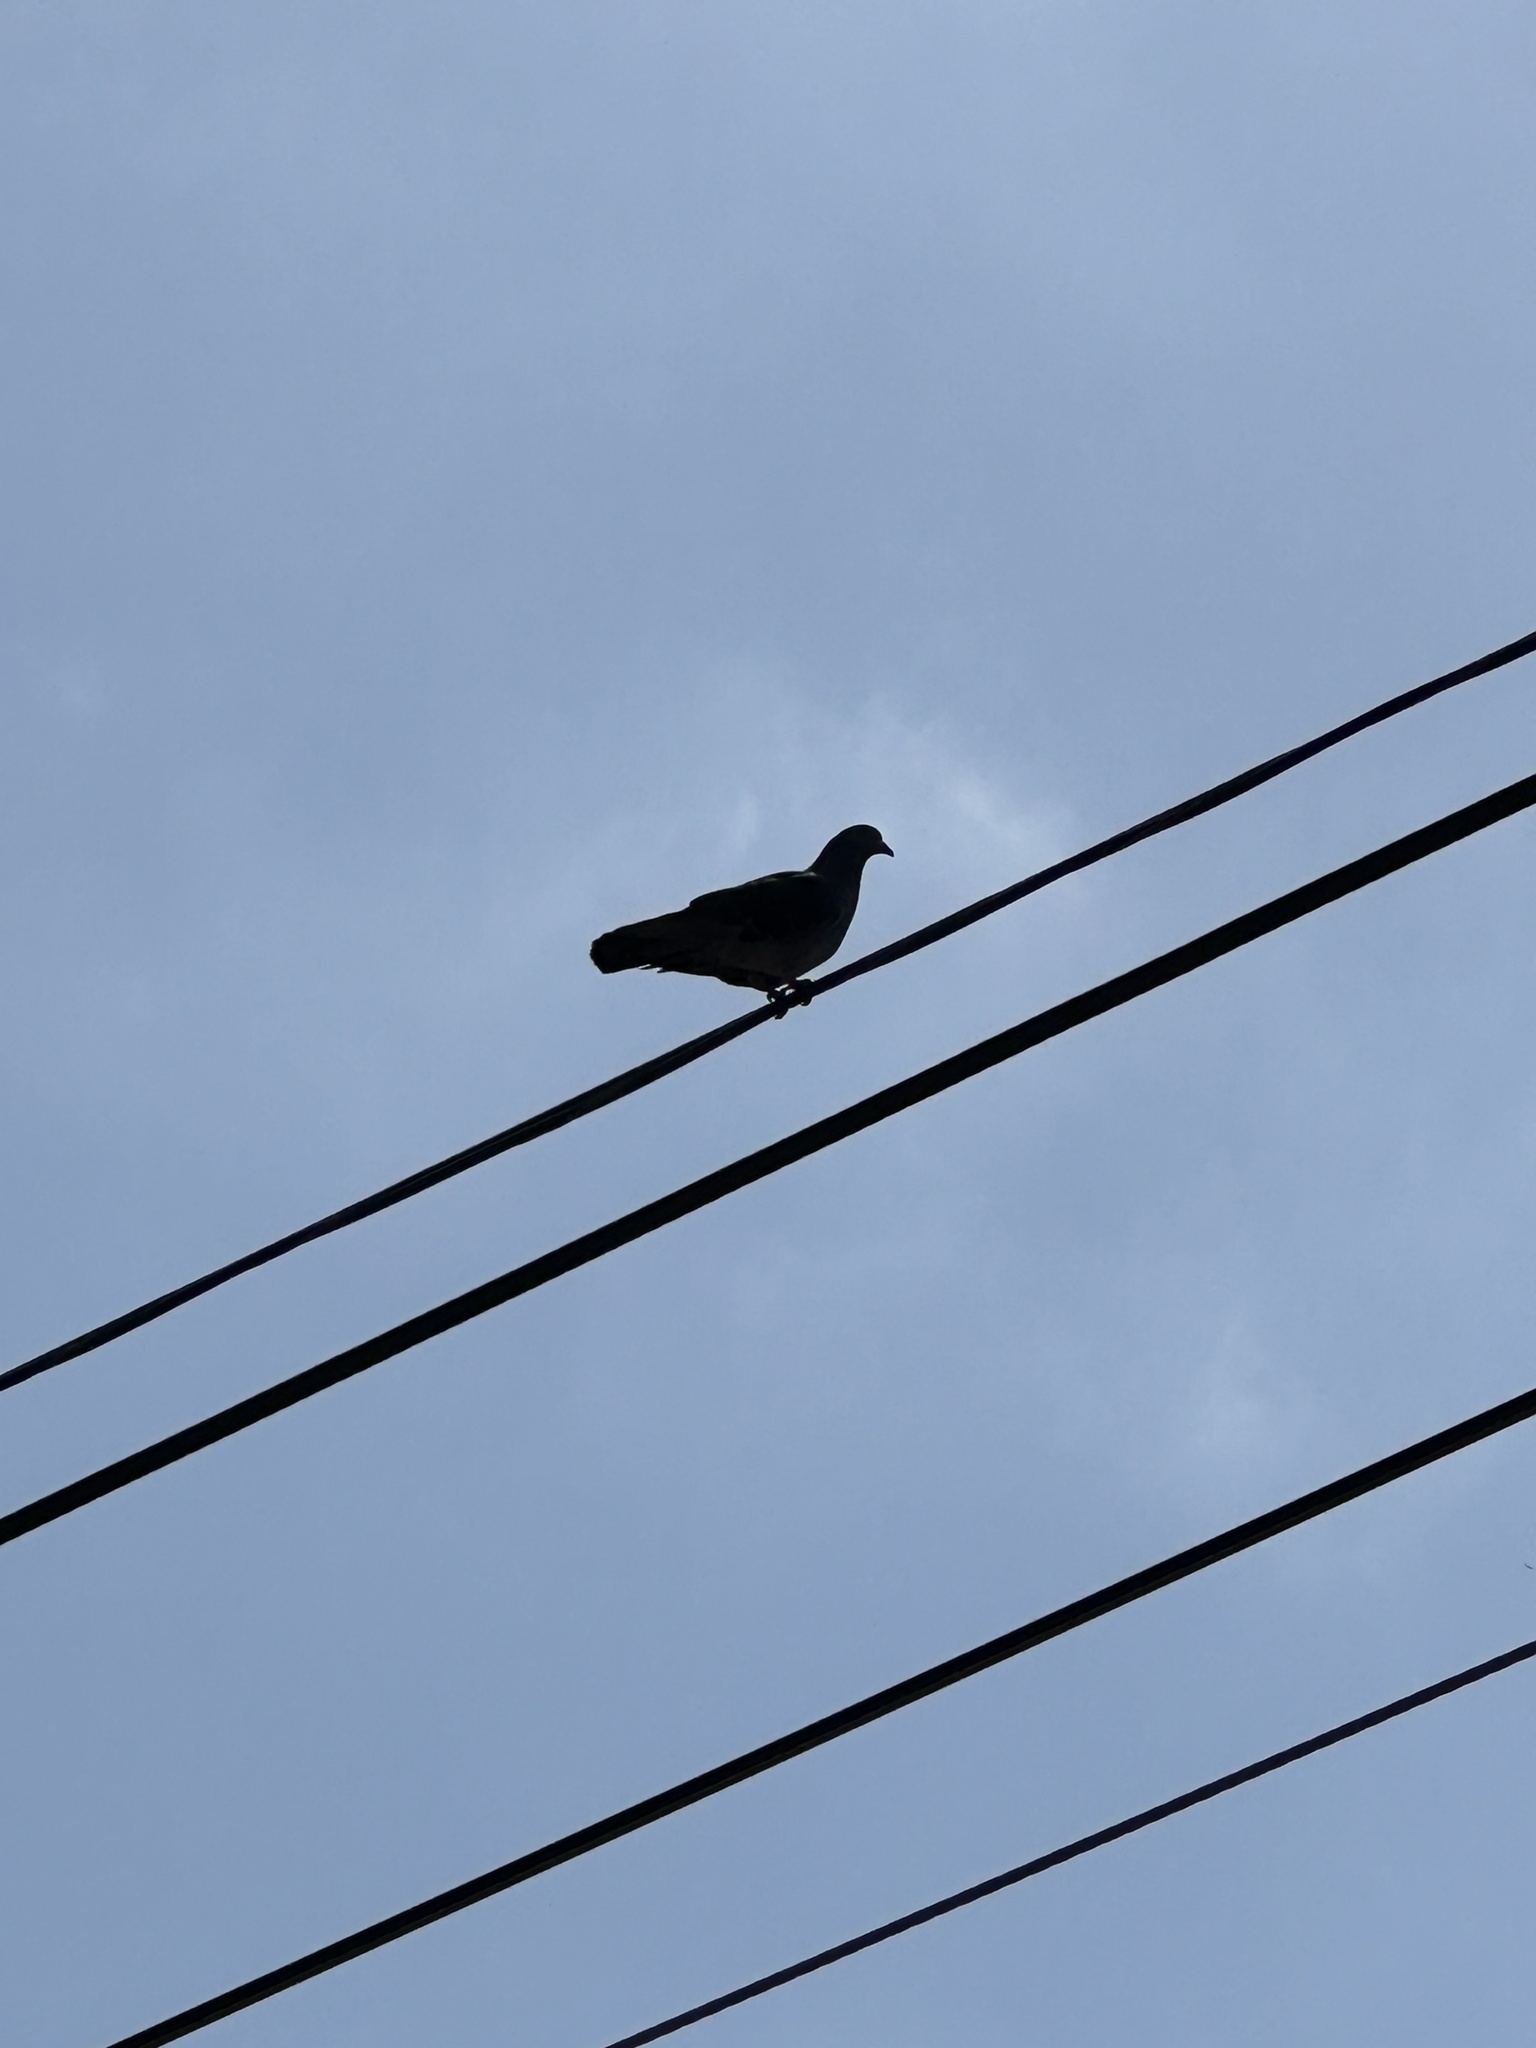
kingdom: Animalia
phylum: Chordata
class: Aves
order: Columbiformes
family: Columbidae
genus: Columba
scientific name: Columba livia
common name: Rock pigeon
